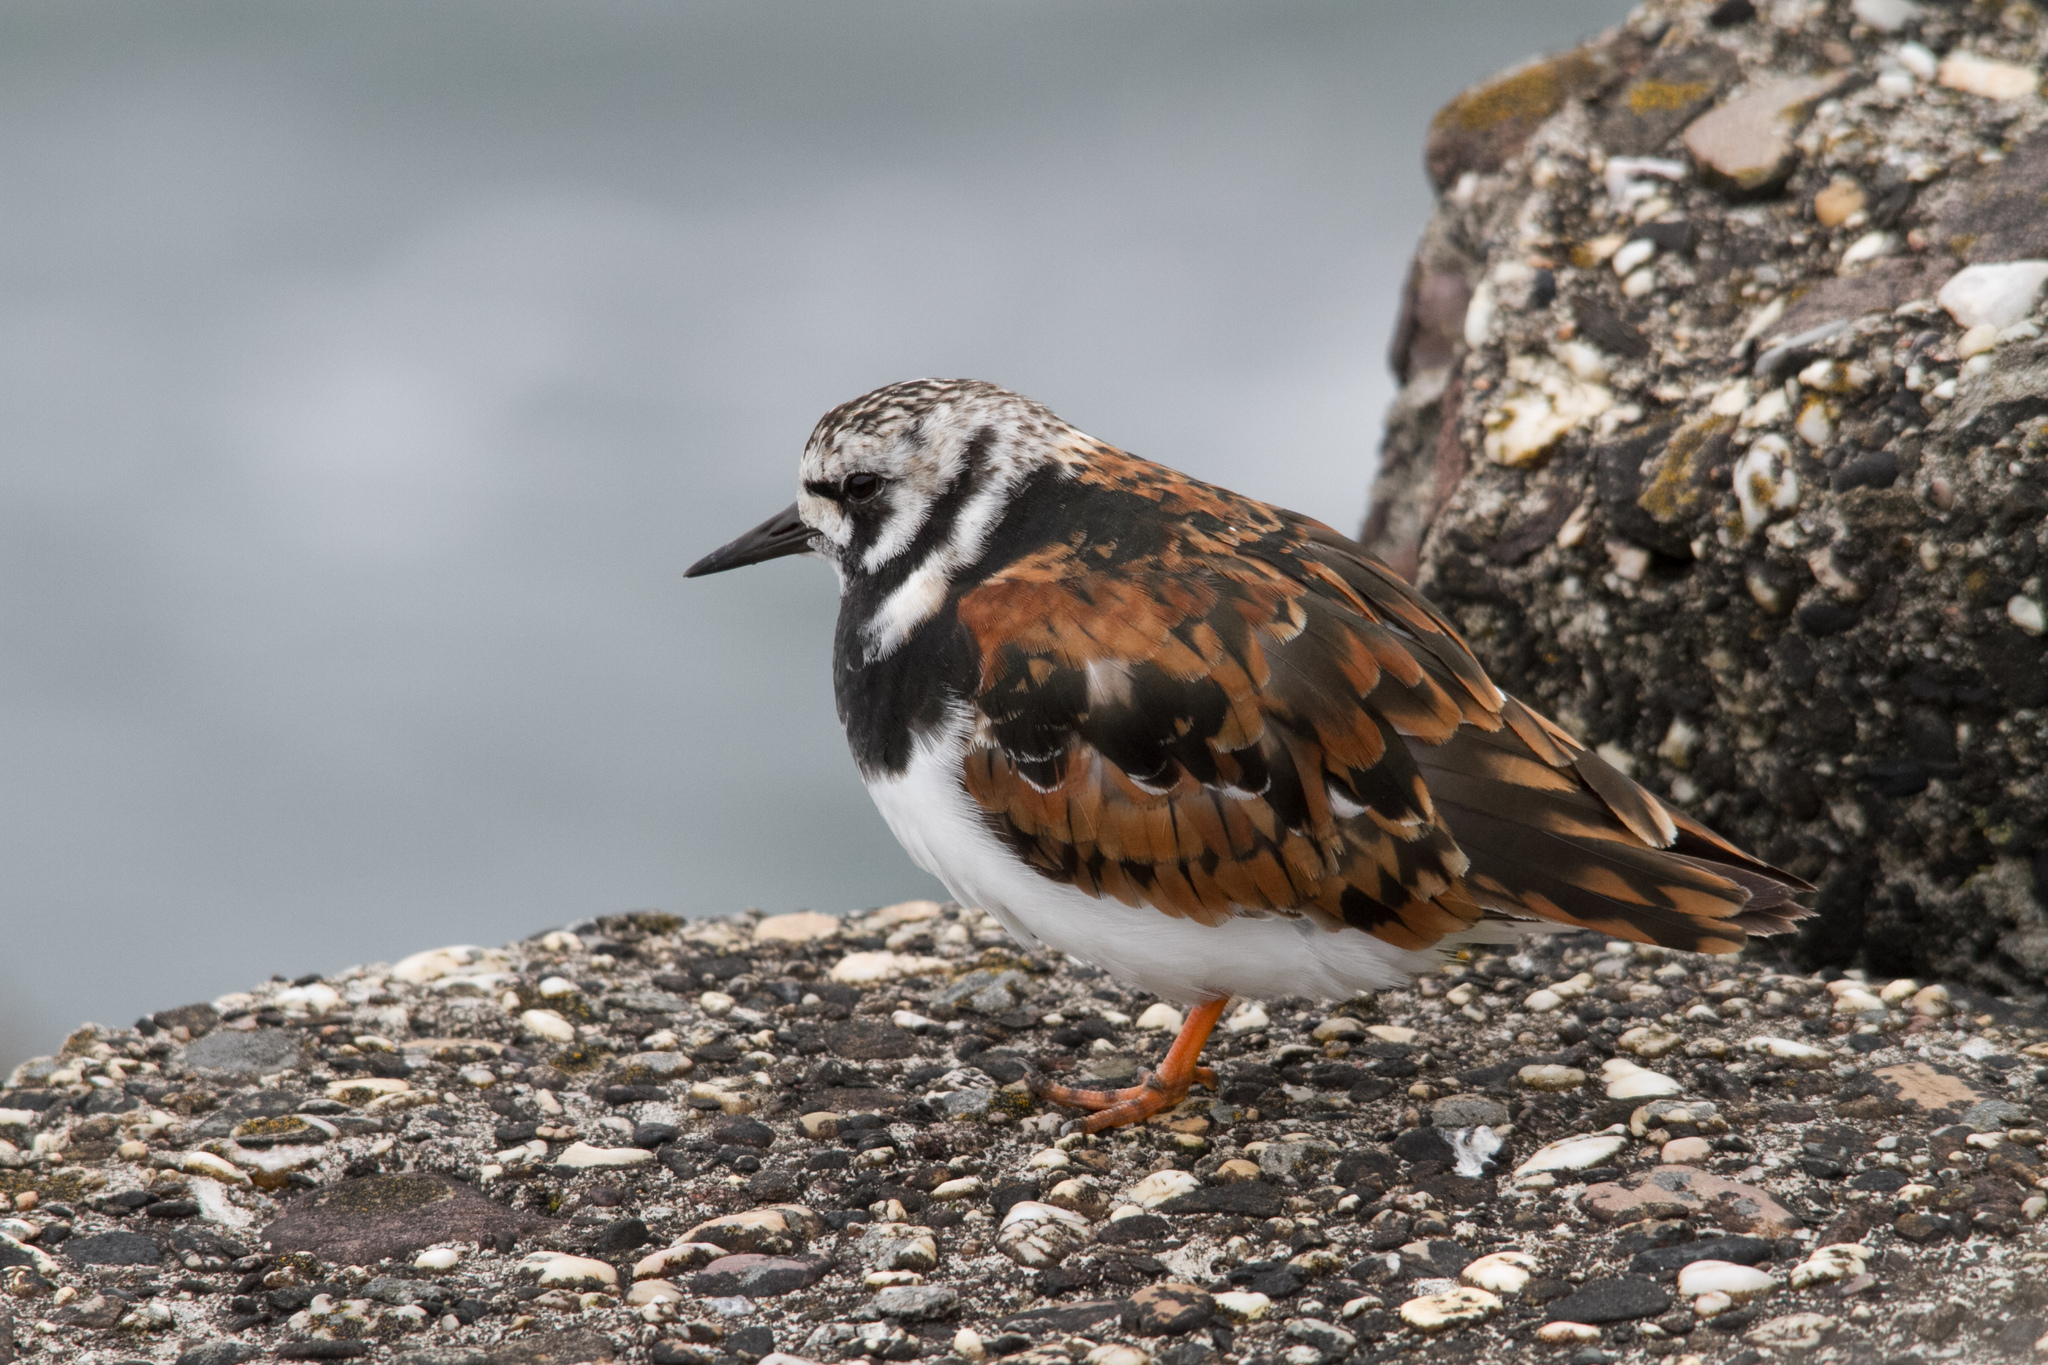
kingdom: Animalia
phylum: Chordata
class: Aves
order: Charadriiformes
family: Scolopacidae
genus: Arenaria
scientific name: Arenaria interpres
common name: Ruddy turnstone
